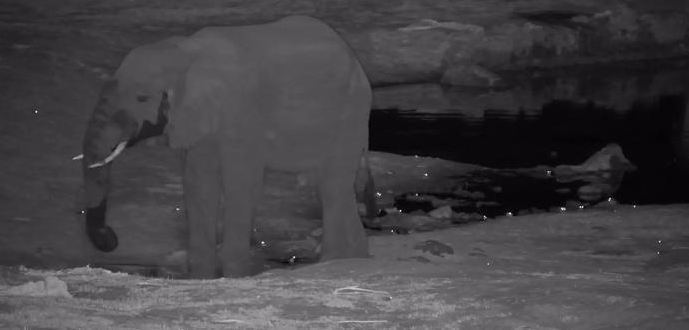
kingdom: Animalia
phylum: Chordata
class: Mammalia
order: Proboscidea
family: Elephantidae
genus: Loxodonta
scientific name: Loxodonta africana
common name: African elephant
